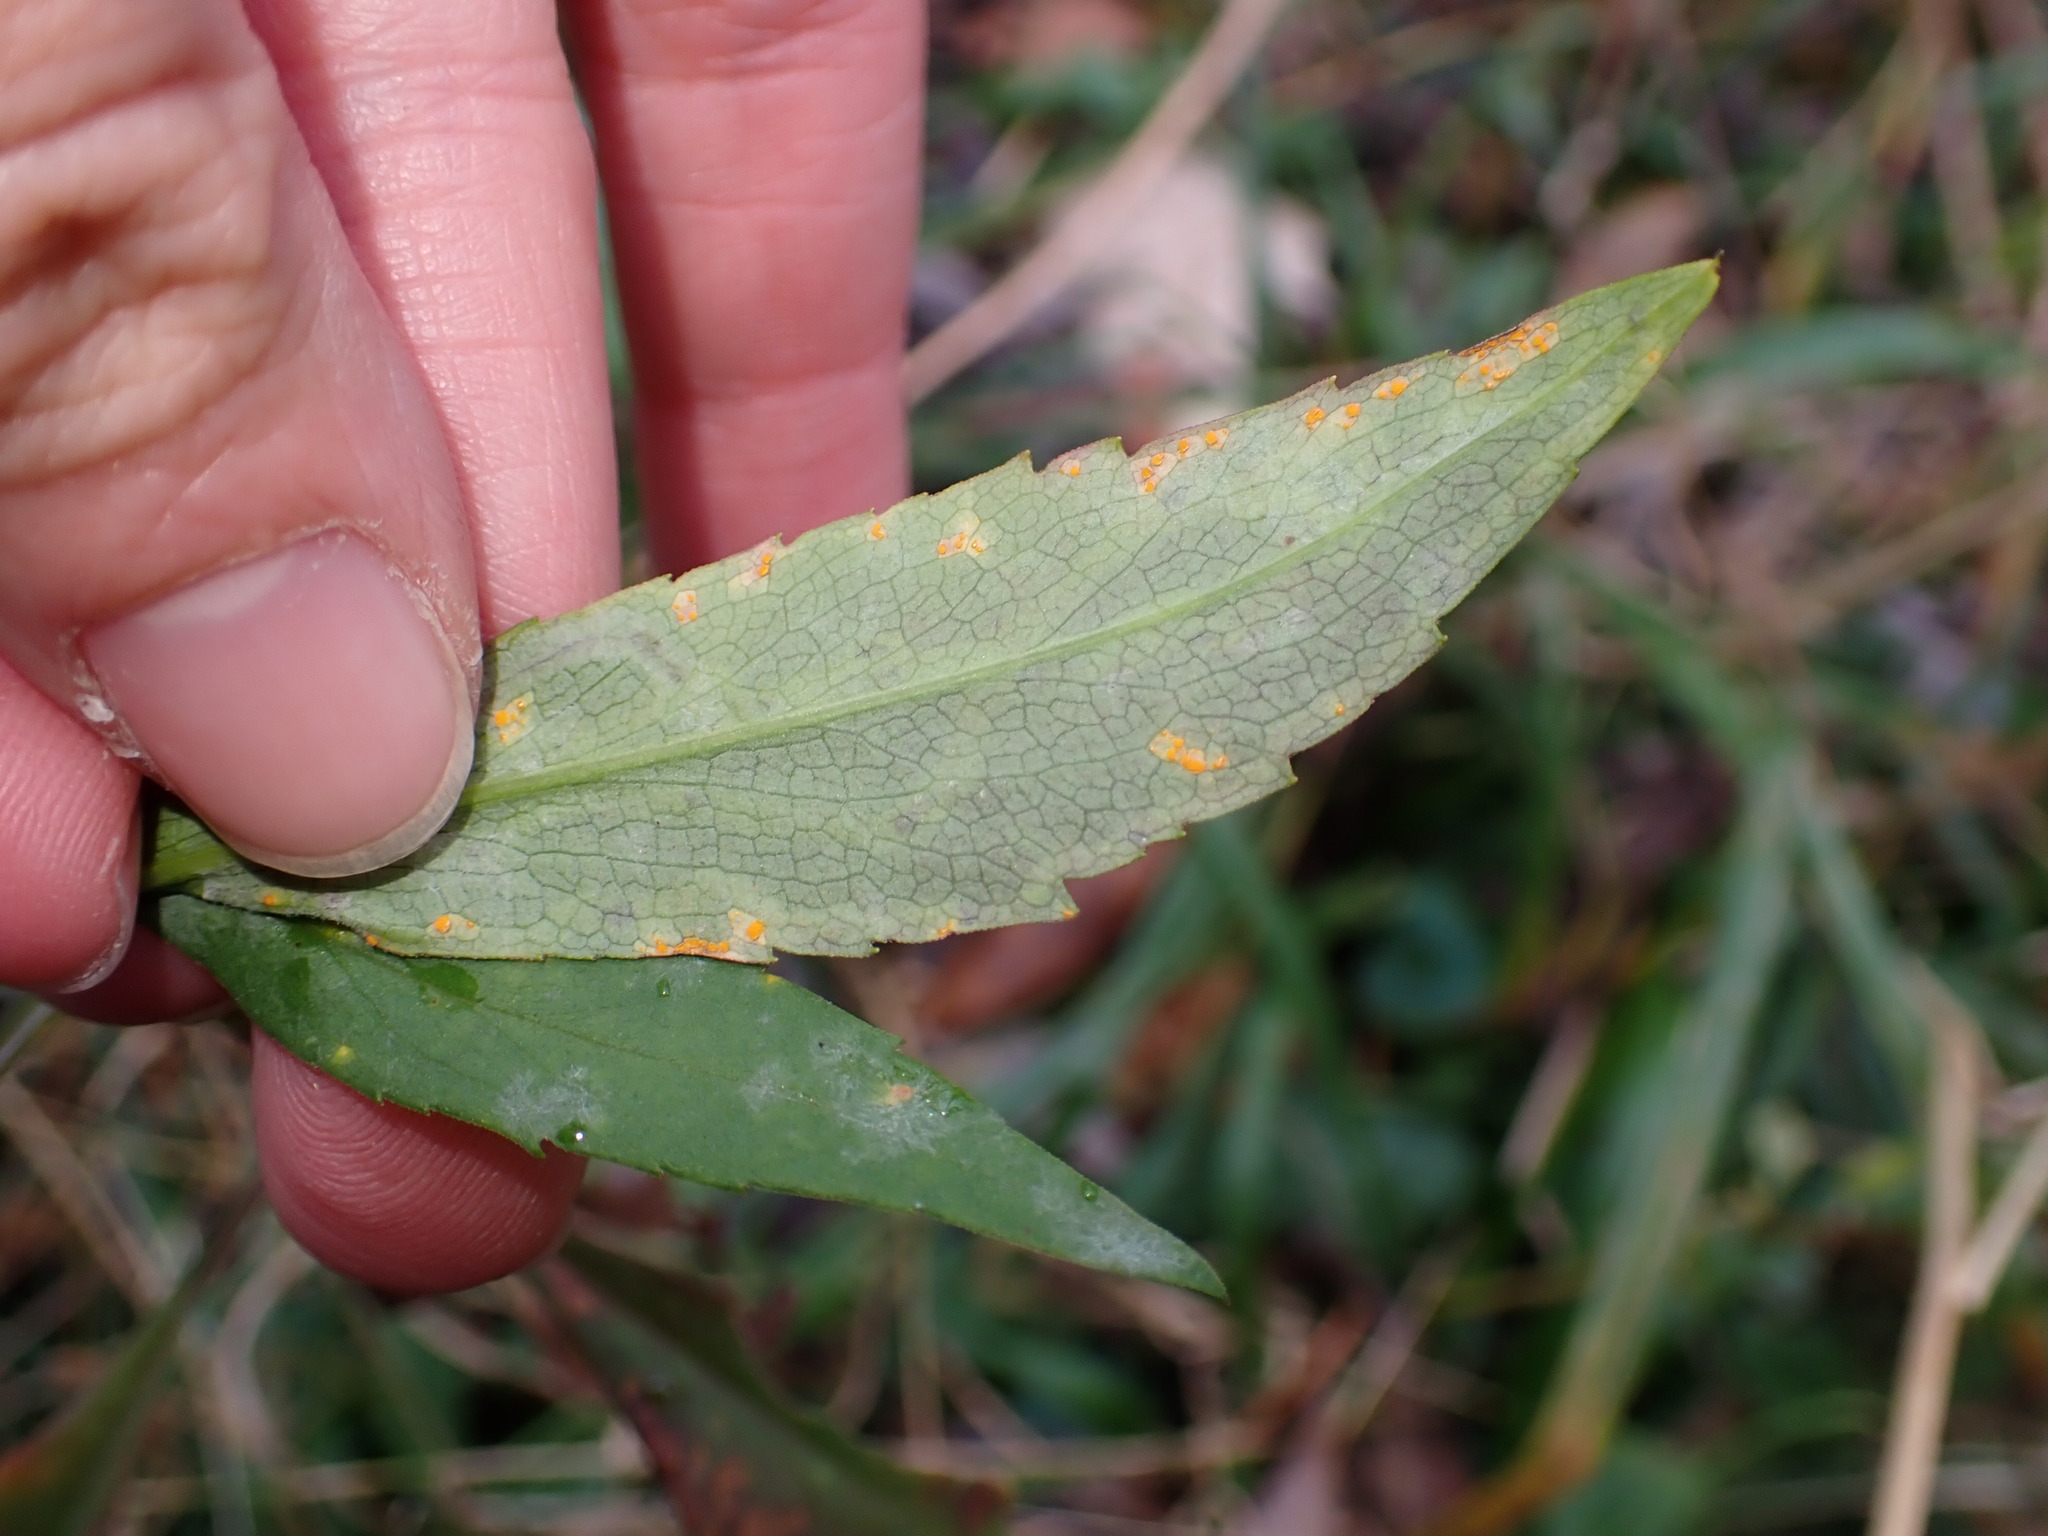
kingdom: Fungi
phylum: Basidiomycota
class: Pucciniomycetes
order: Pucciniales
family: Coleosporiaceae
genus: Coleosporium
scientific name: Coleosporium asterum
